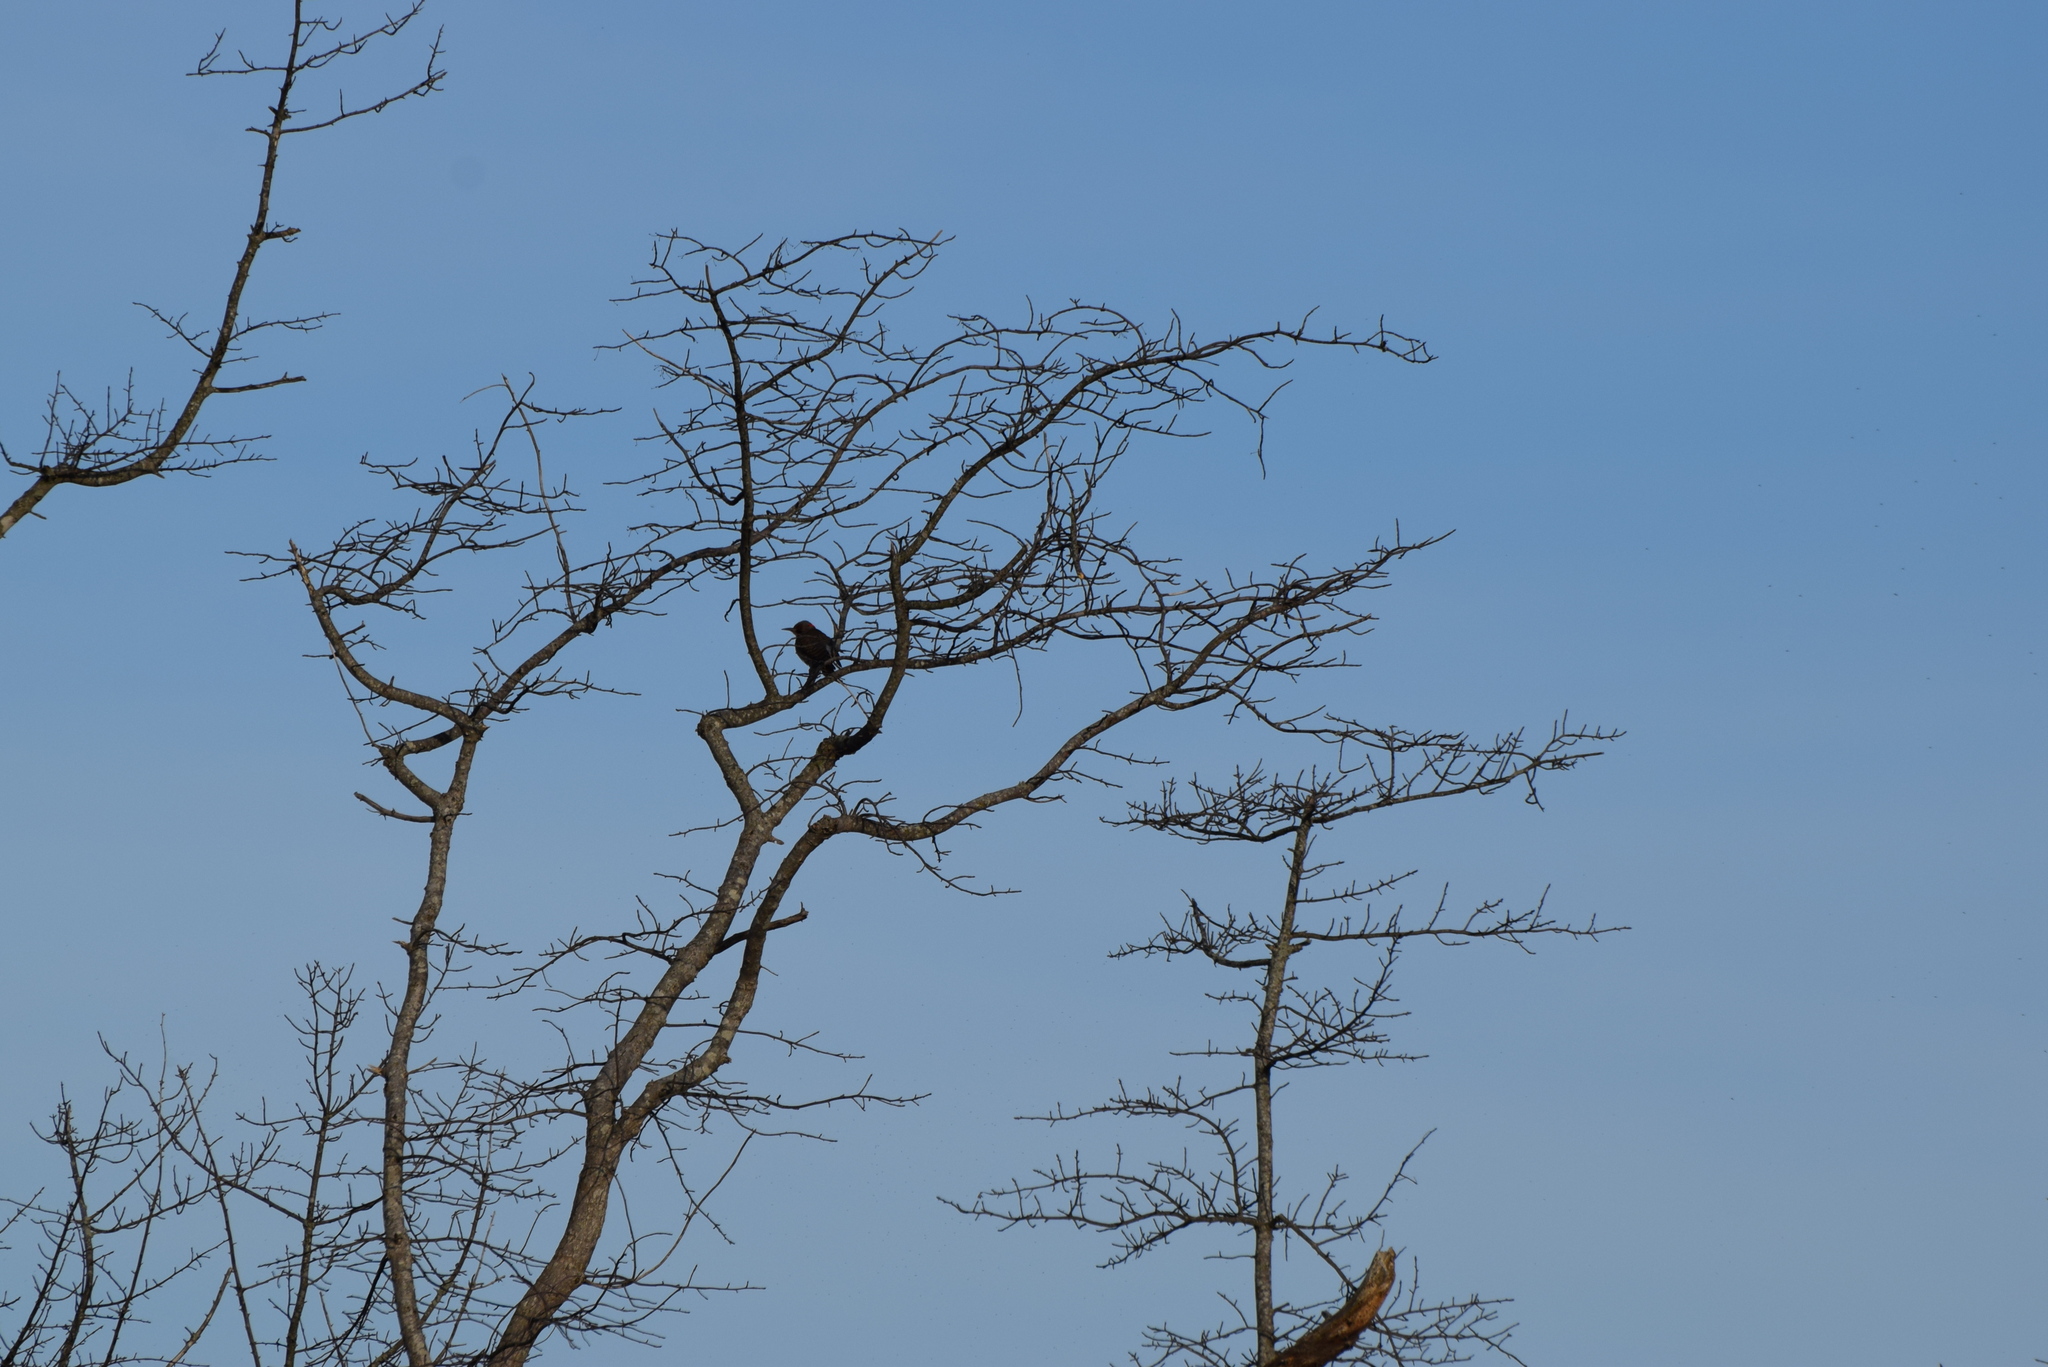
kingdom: Animalia
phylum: Chordata
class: Aves
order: Piciformes
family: Picidae
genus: Colaptes
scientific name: Colaptes auratus
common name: Northern flicker
